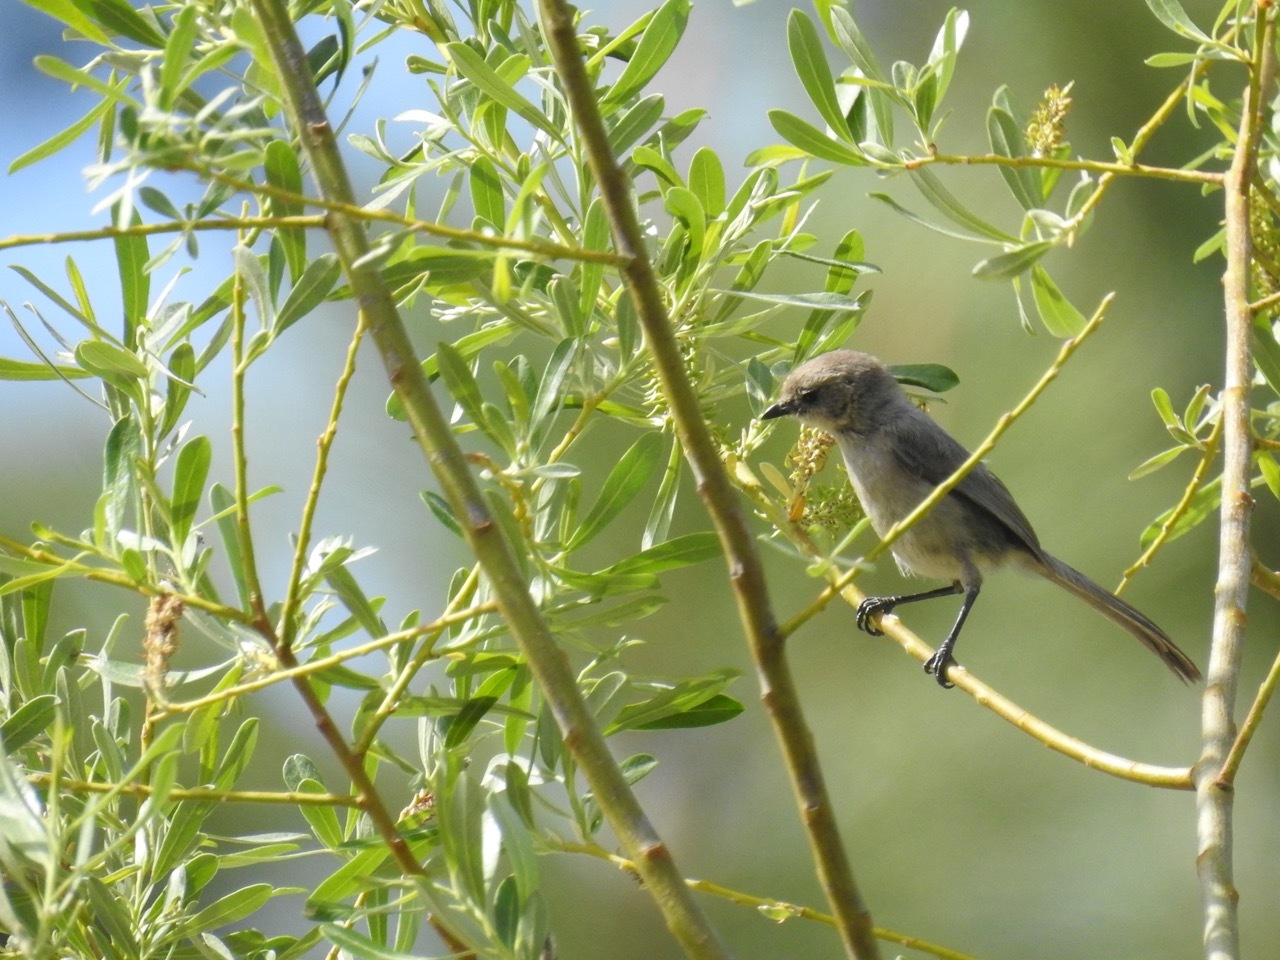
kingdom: Animalia
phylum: Chordata
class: Aves
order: Passeriformes
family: Aegithalidae
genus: Psaltriparus
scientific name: Psaltriparus minimus
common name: American bushtit
